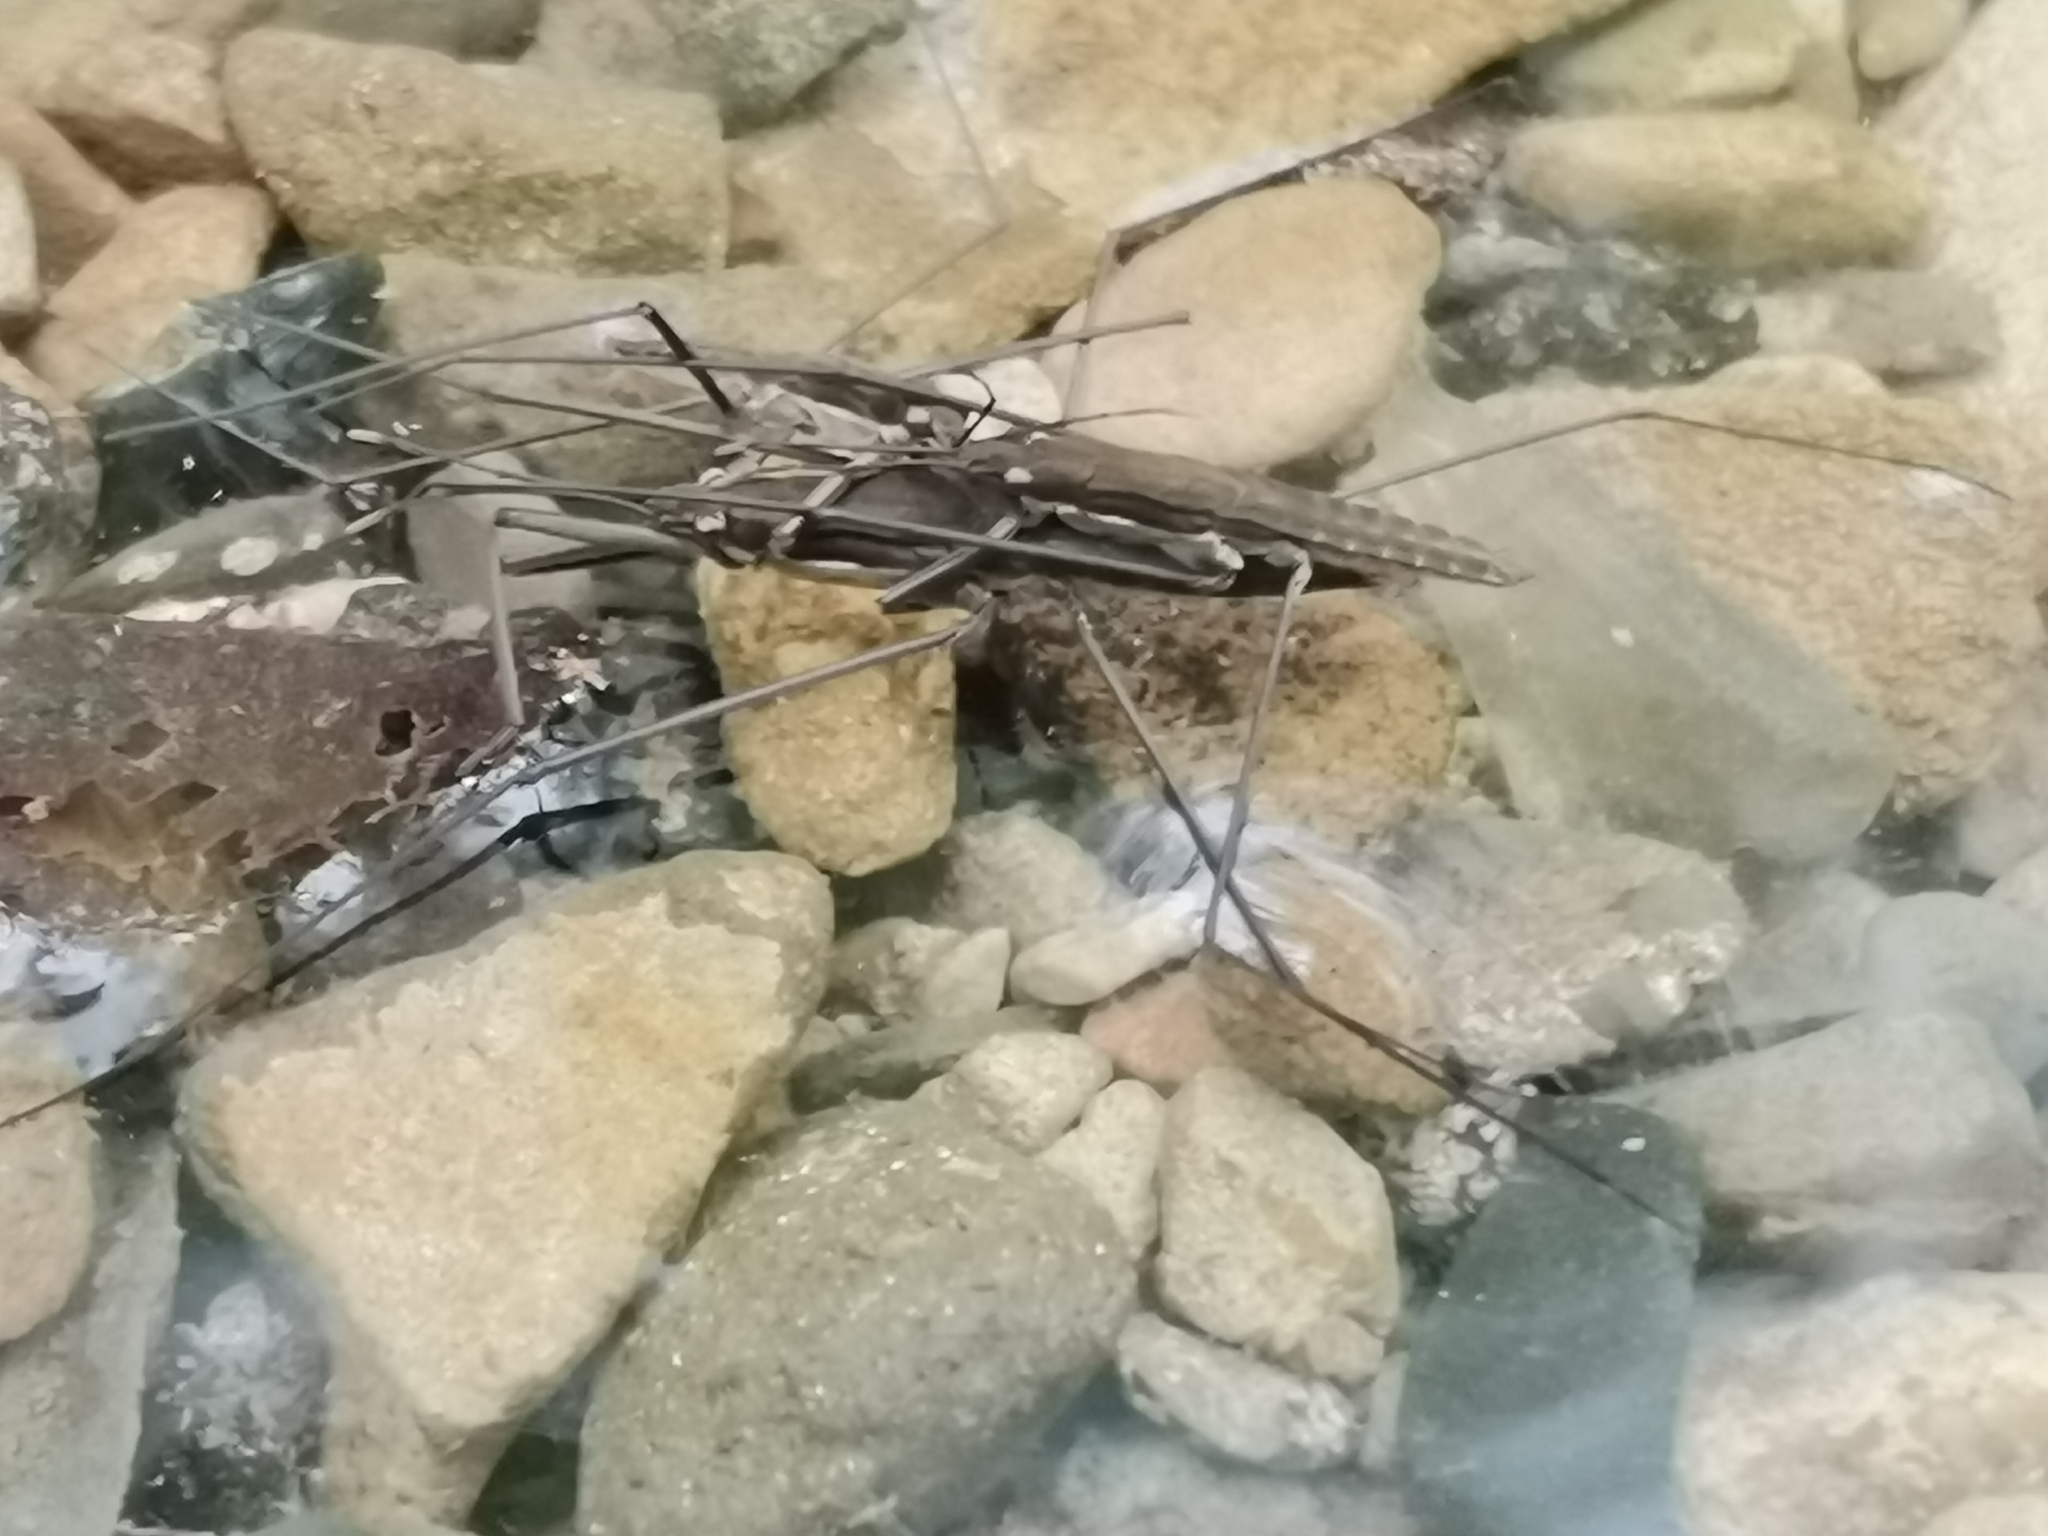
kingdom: Animalia
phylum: Arthropoda
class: Insecta
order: Hemiptera
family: Gerridae
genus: Aquarius
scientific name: Aquarius najas
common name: River skater
